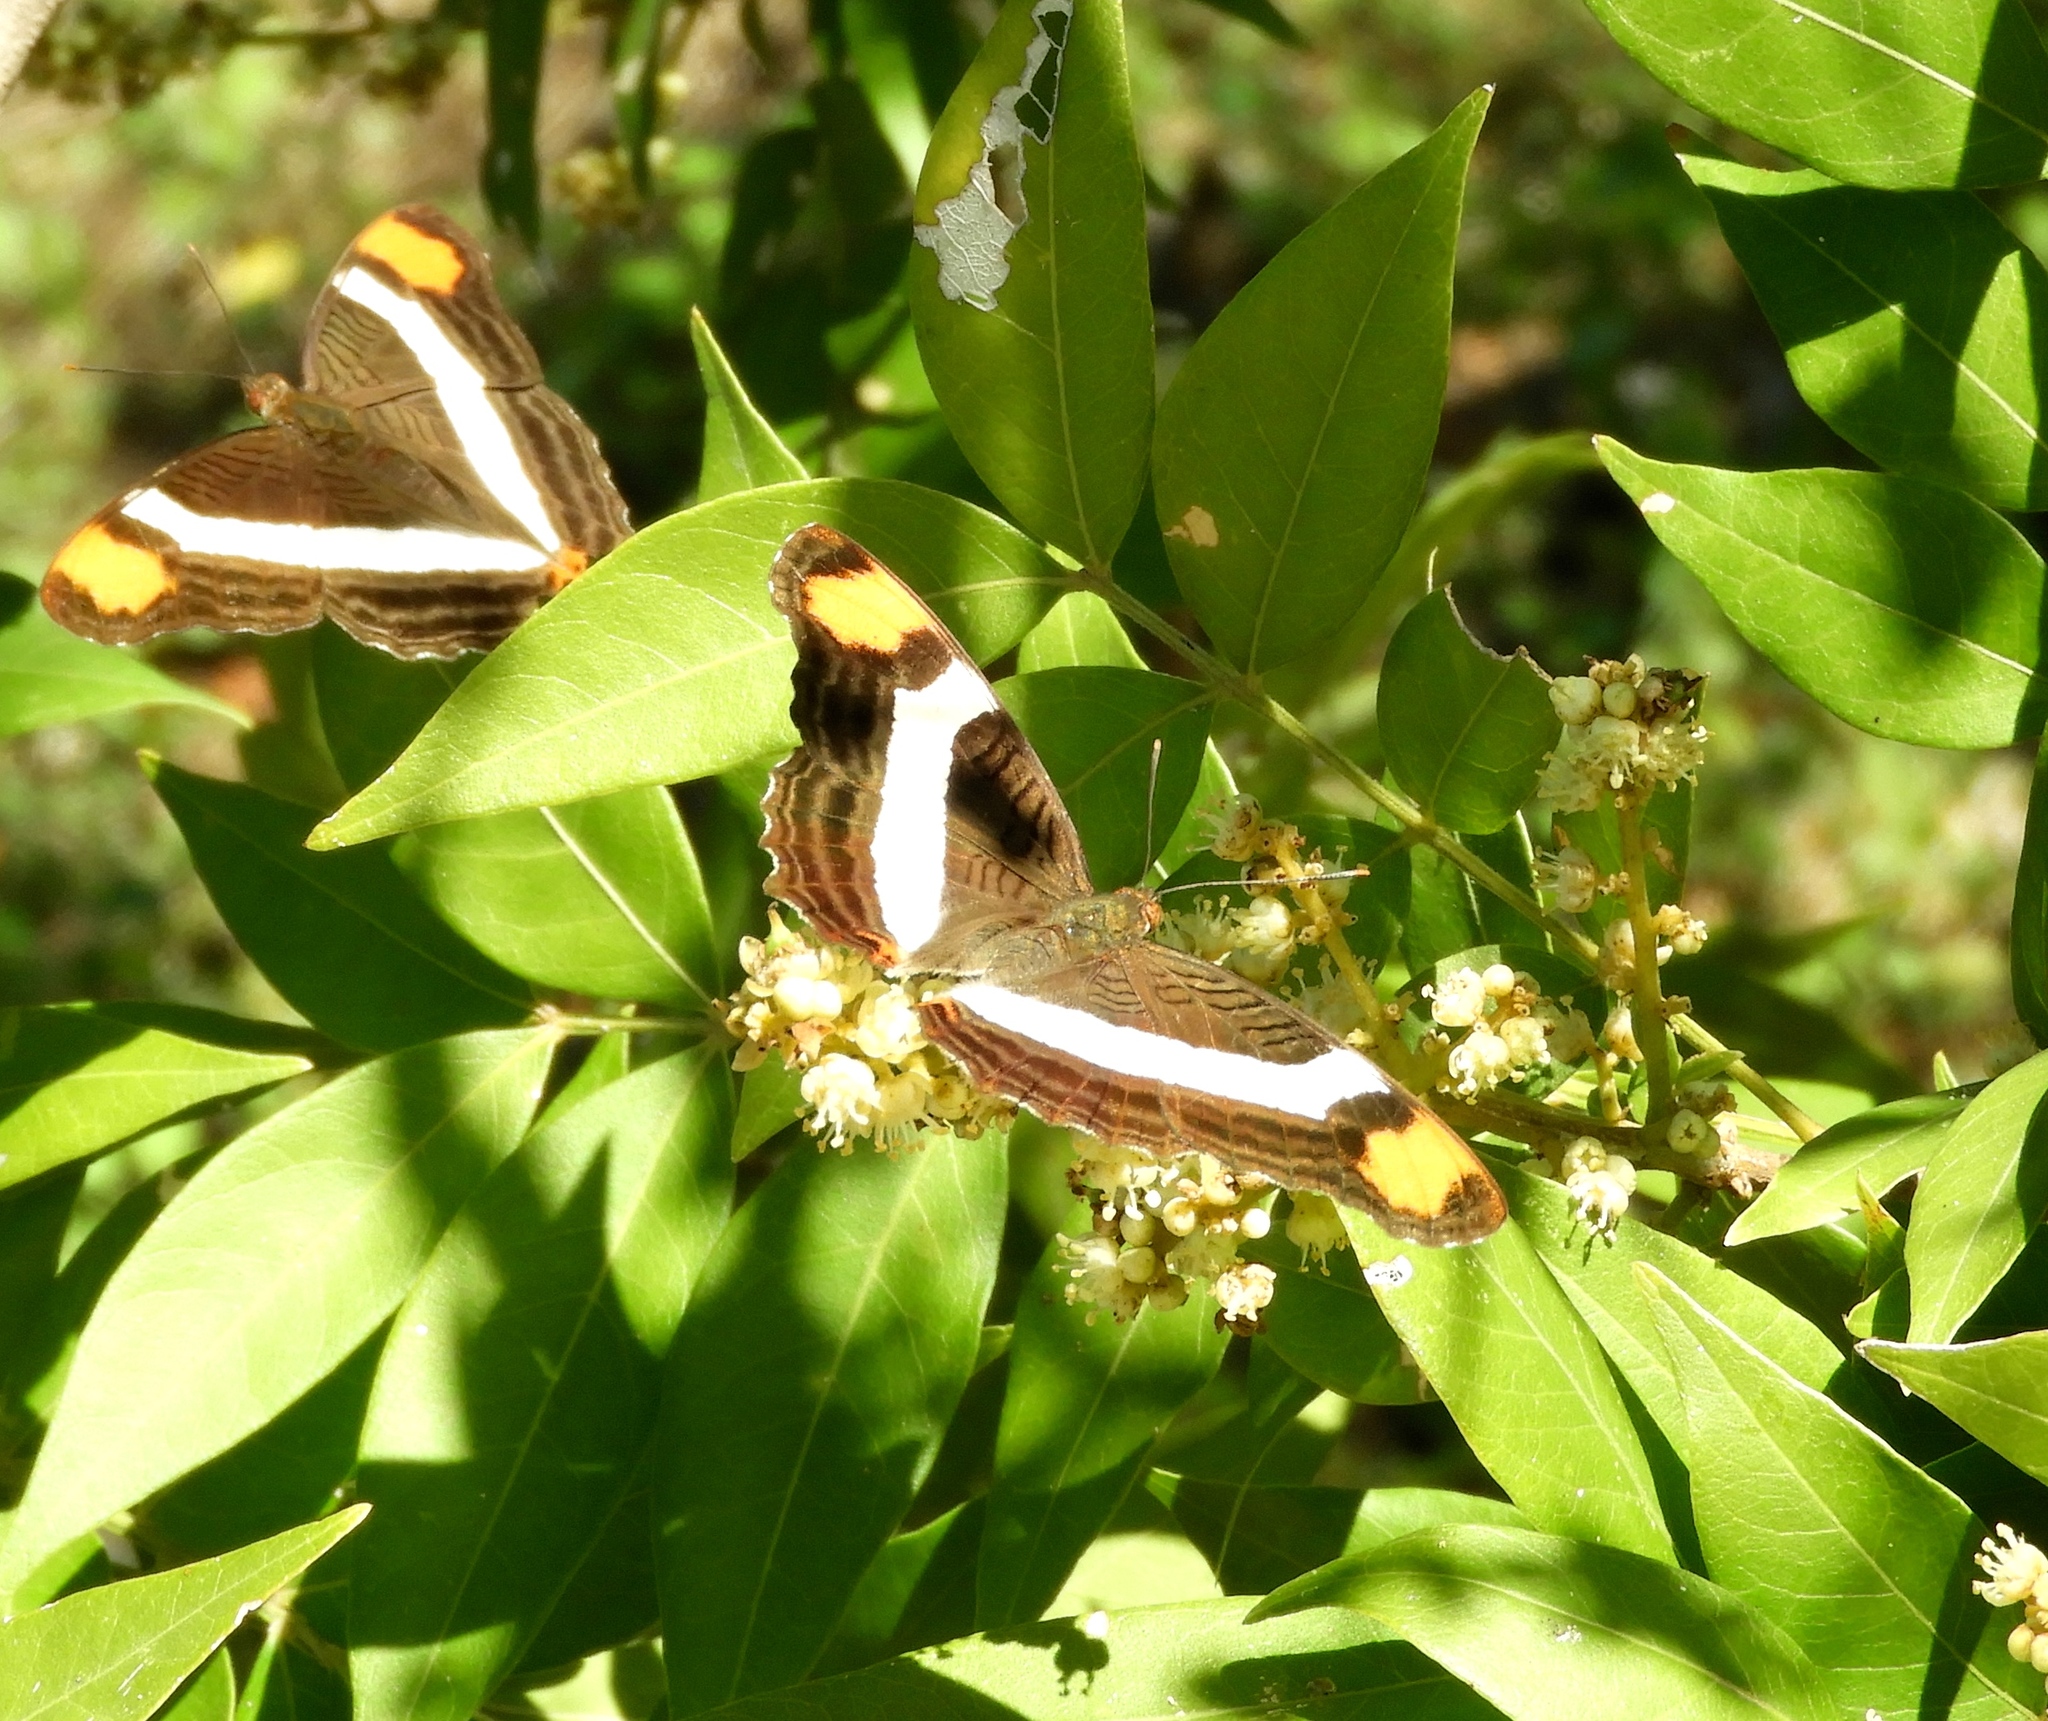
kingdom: Animalia
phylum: Arthropoda
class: Insecta
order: Lepidoptera
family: Nymphalidae
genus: Limenitis
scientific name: Limenitis fessonia
